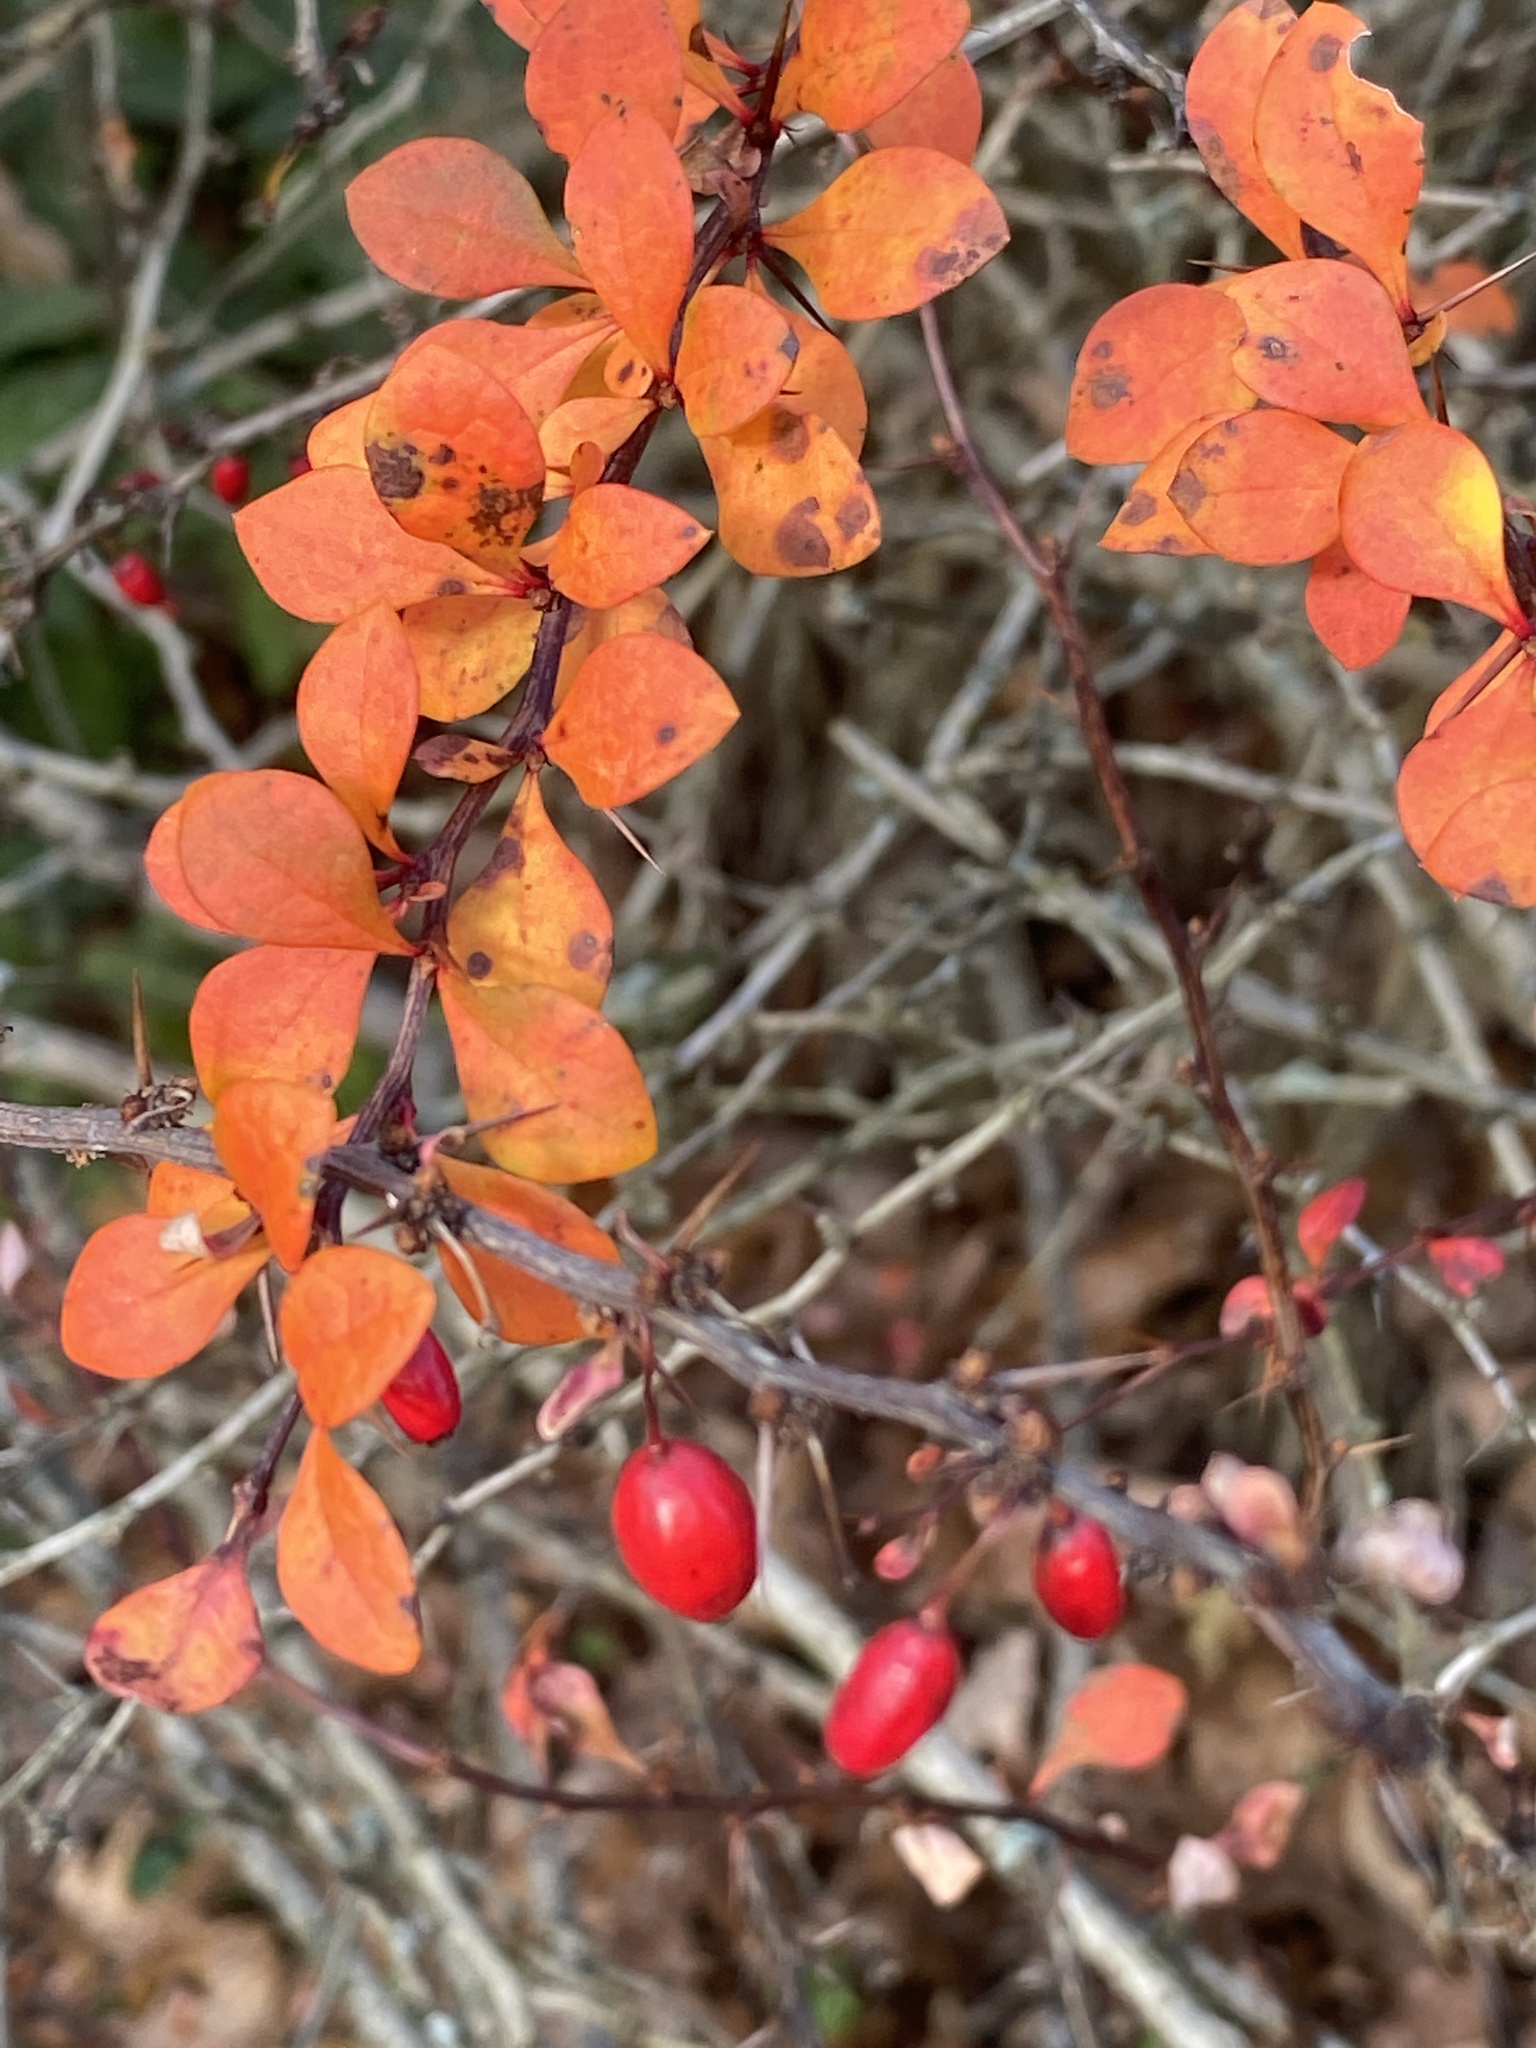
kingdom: Plantae
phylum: Tracheophyta
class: Magnoliopsida
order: Ranunculales
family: Berberidaceae
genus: Berberis
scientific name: Berberis thunbergii
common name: Japanese barberry
